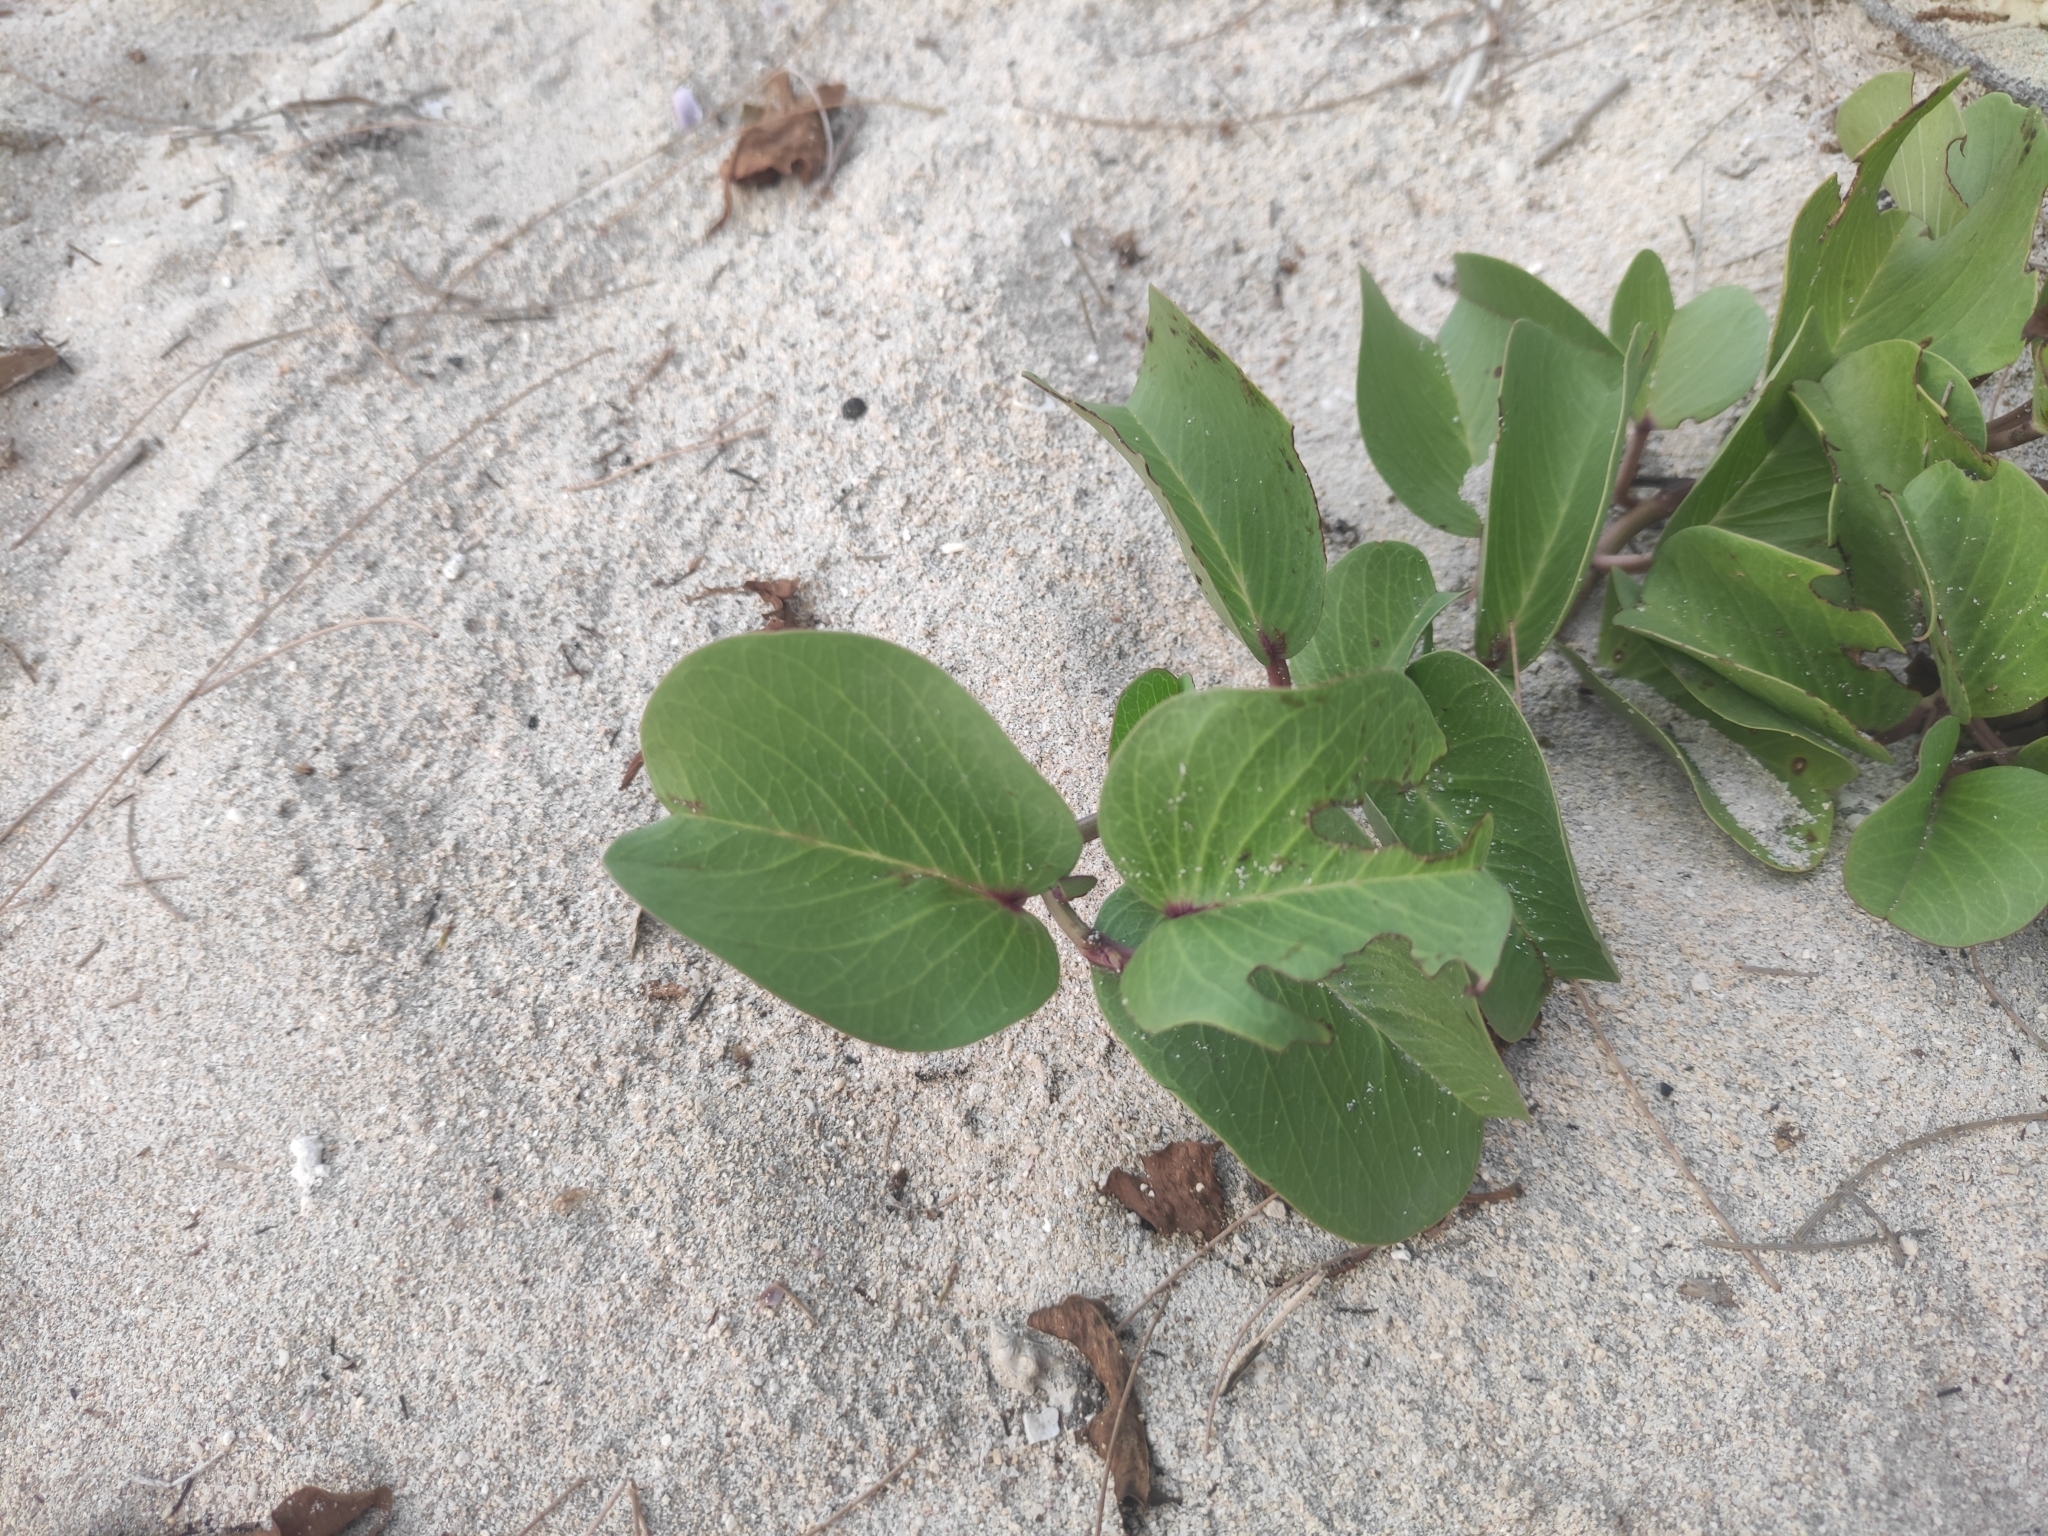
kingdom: Plantae
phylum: Tracheophyta
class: Magnoliopsida
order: Solanales
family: Convolvulaceae
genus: Ipomoea
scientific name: Ipomoea pes-caprae
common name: Beach morning glory
